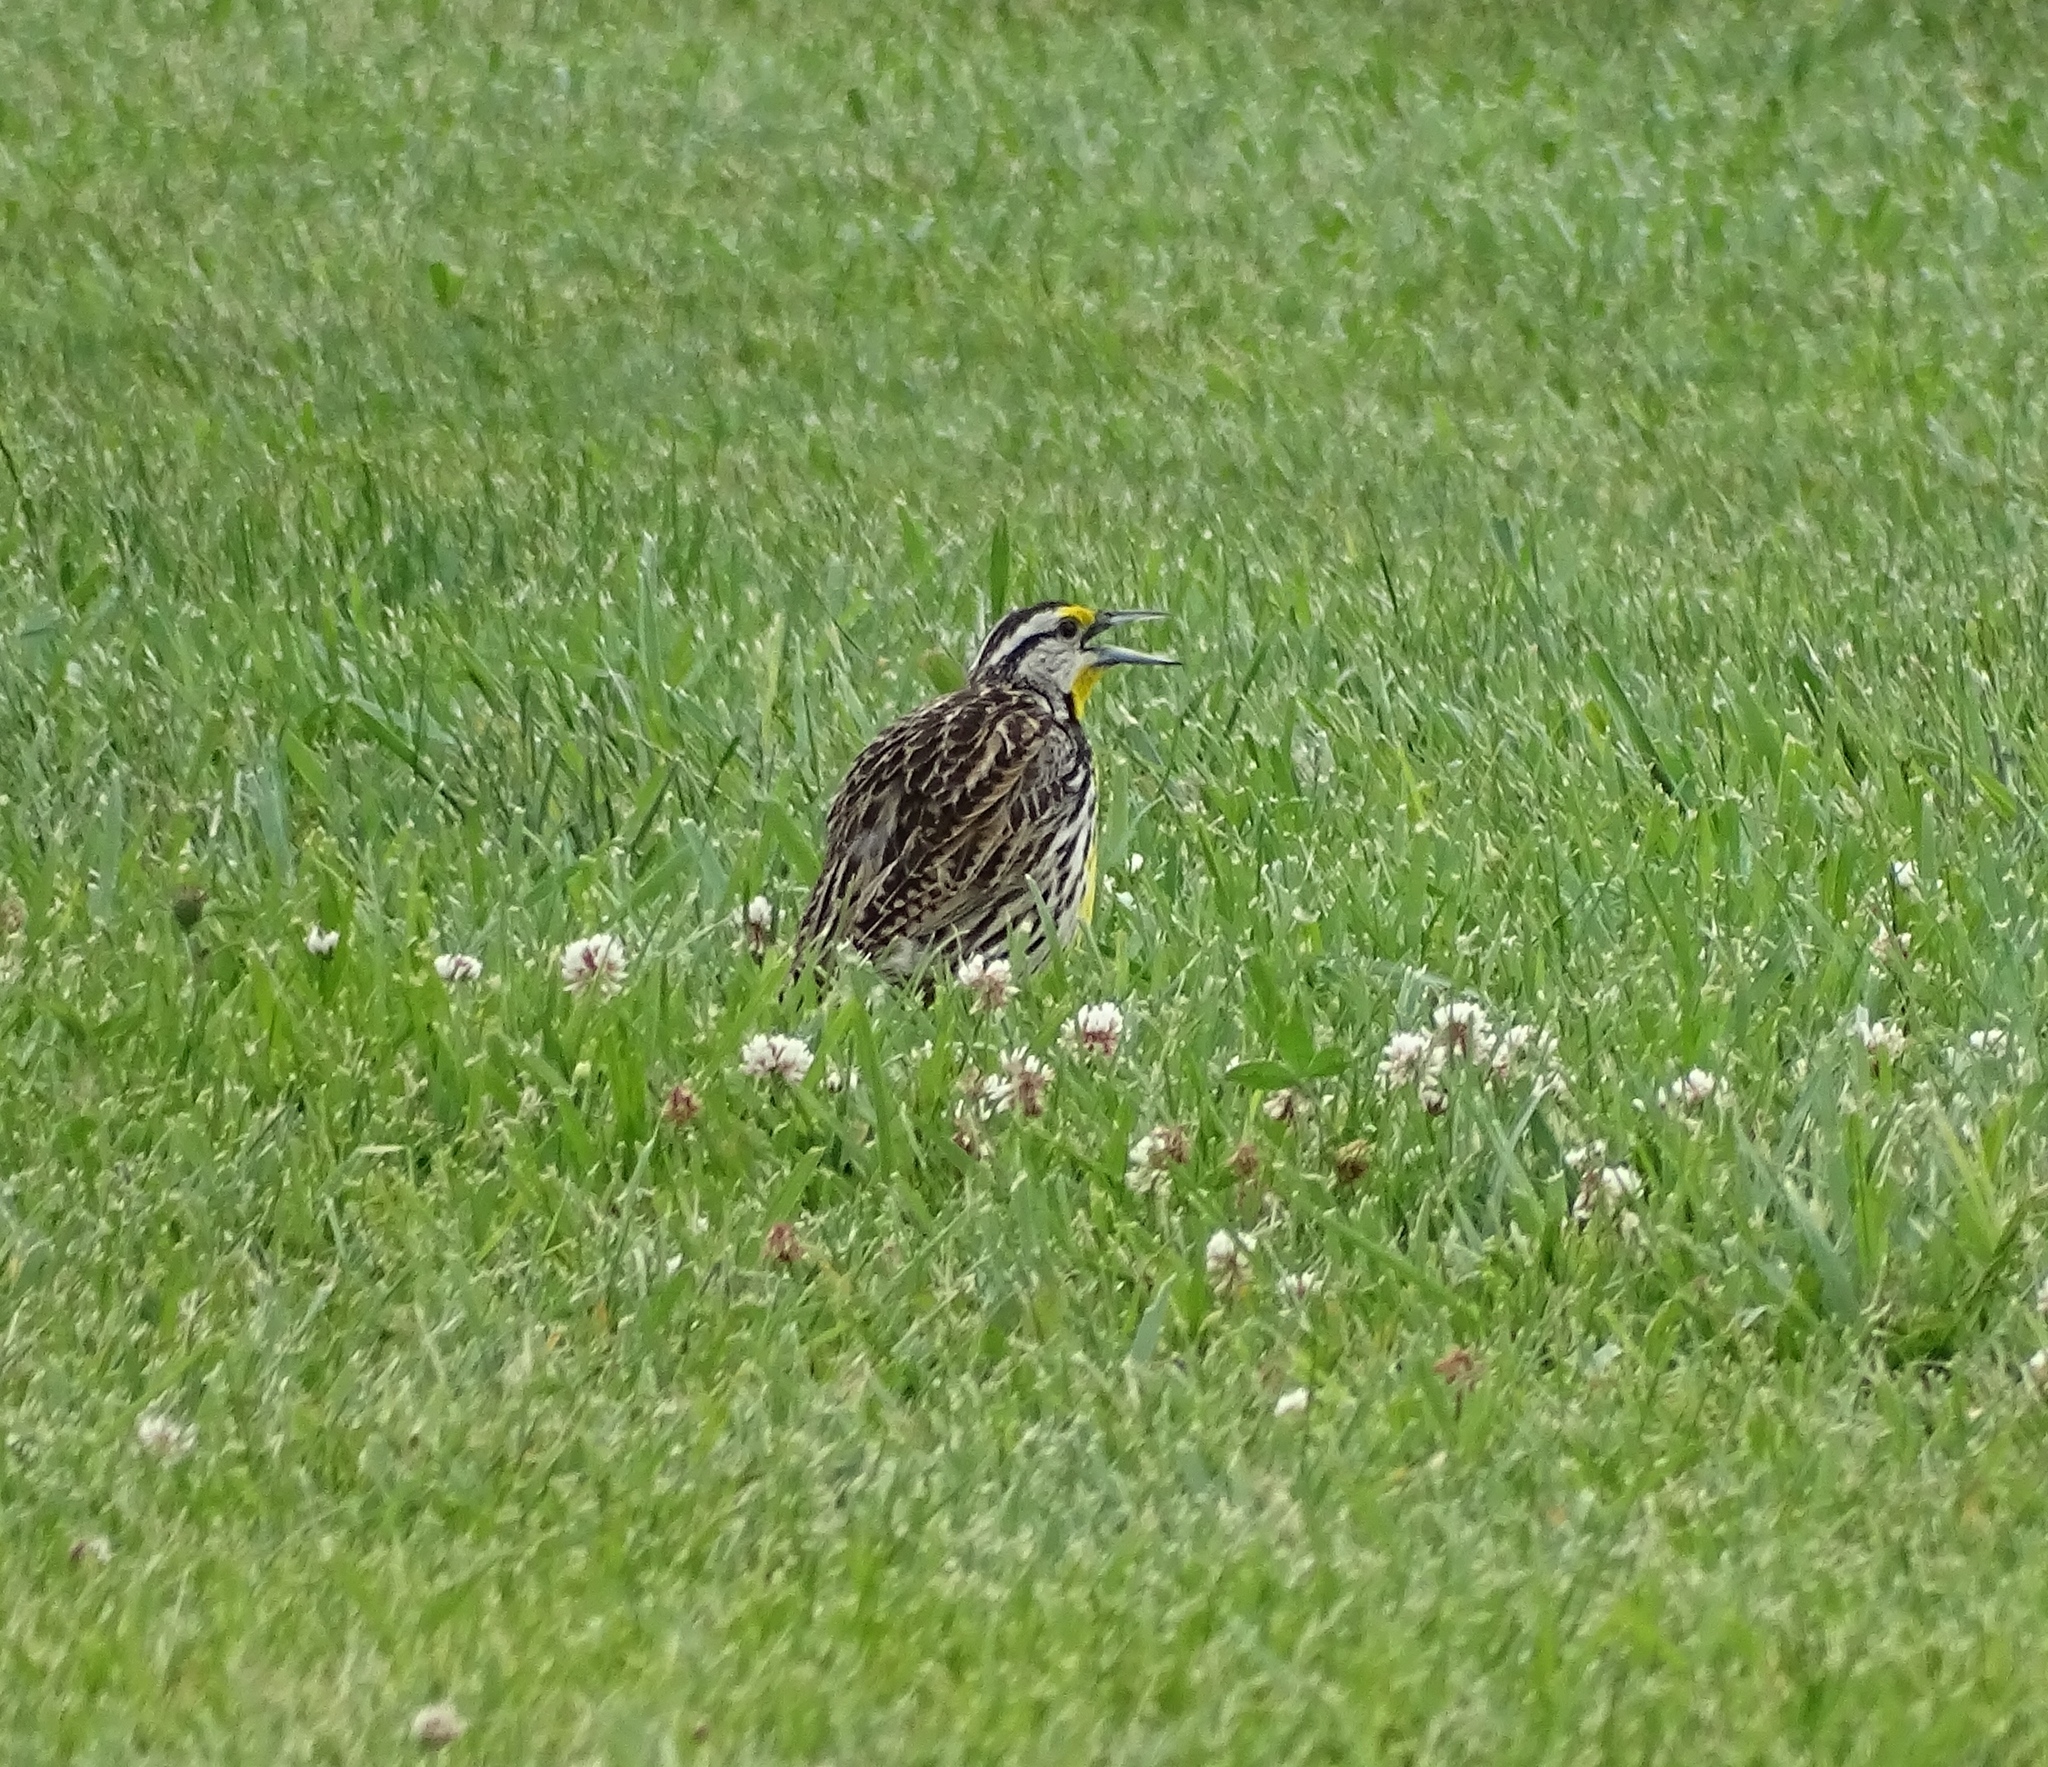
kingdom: Animalia
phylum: Chordata
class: Aves
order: Passeriformes
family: Icteridae
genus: Sturnella
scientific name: Sturnella magna
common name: Eastern meadowlark
